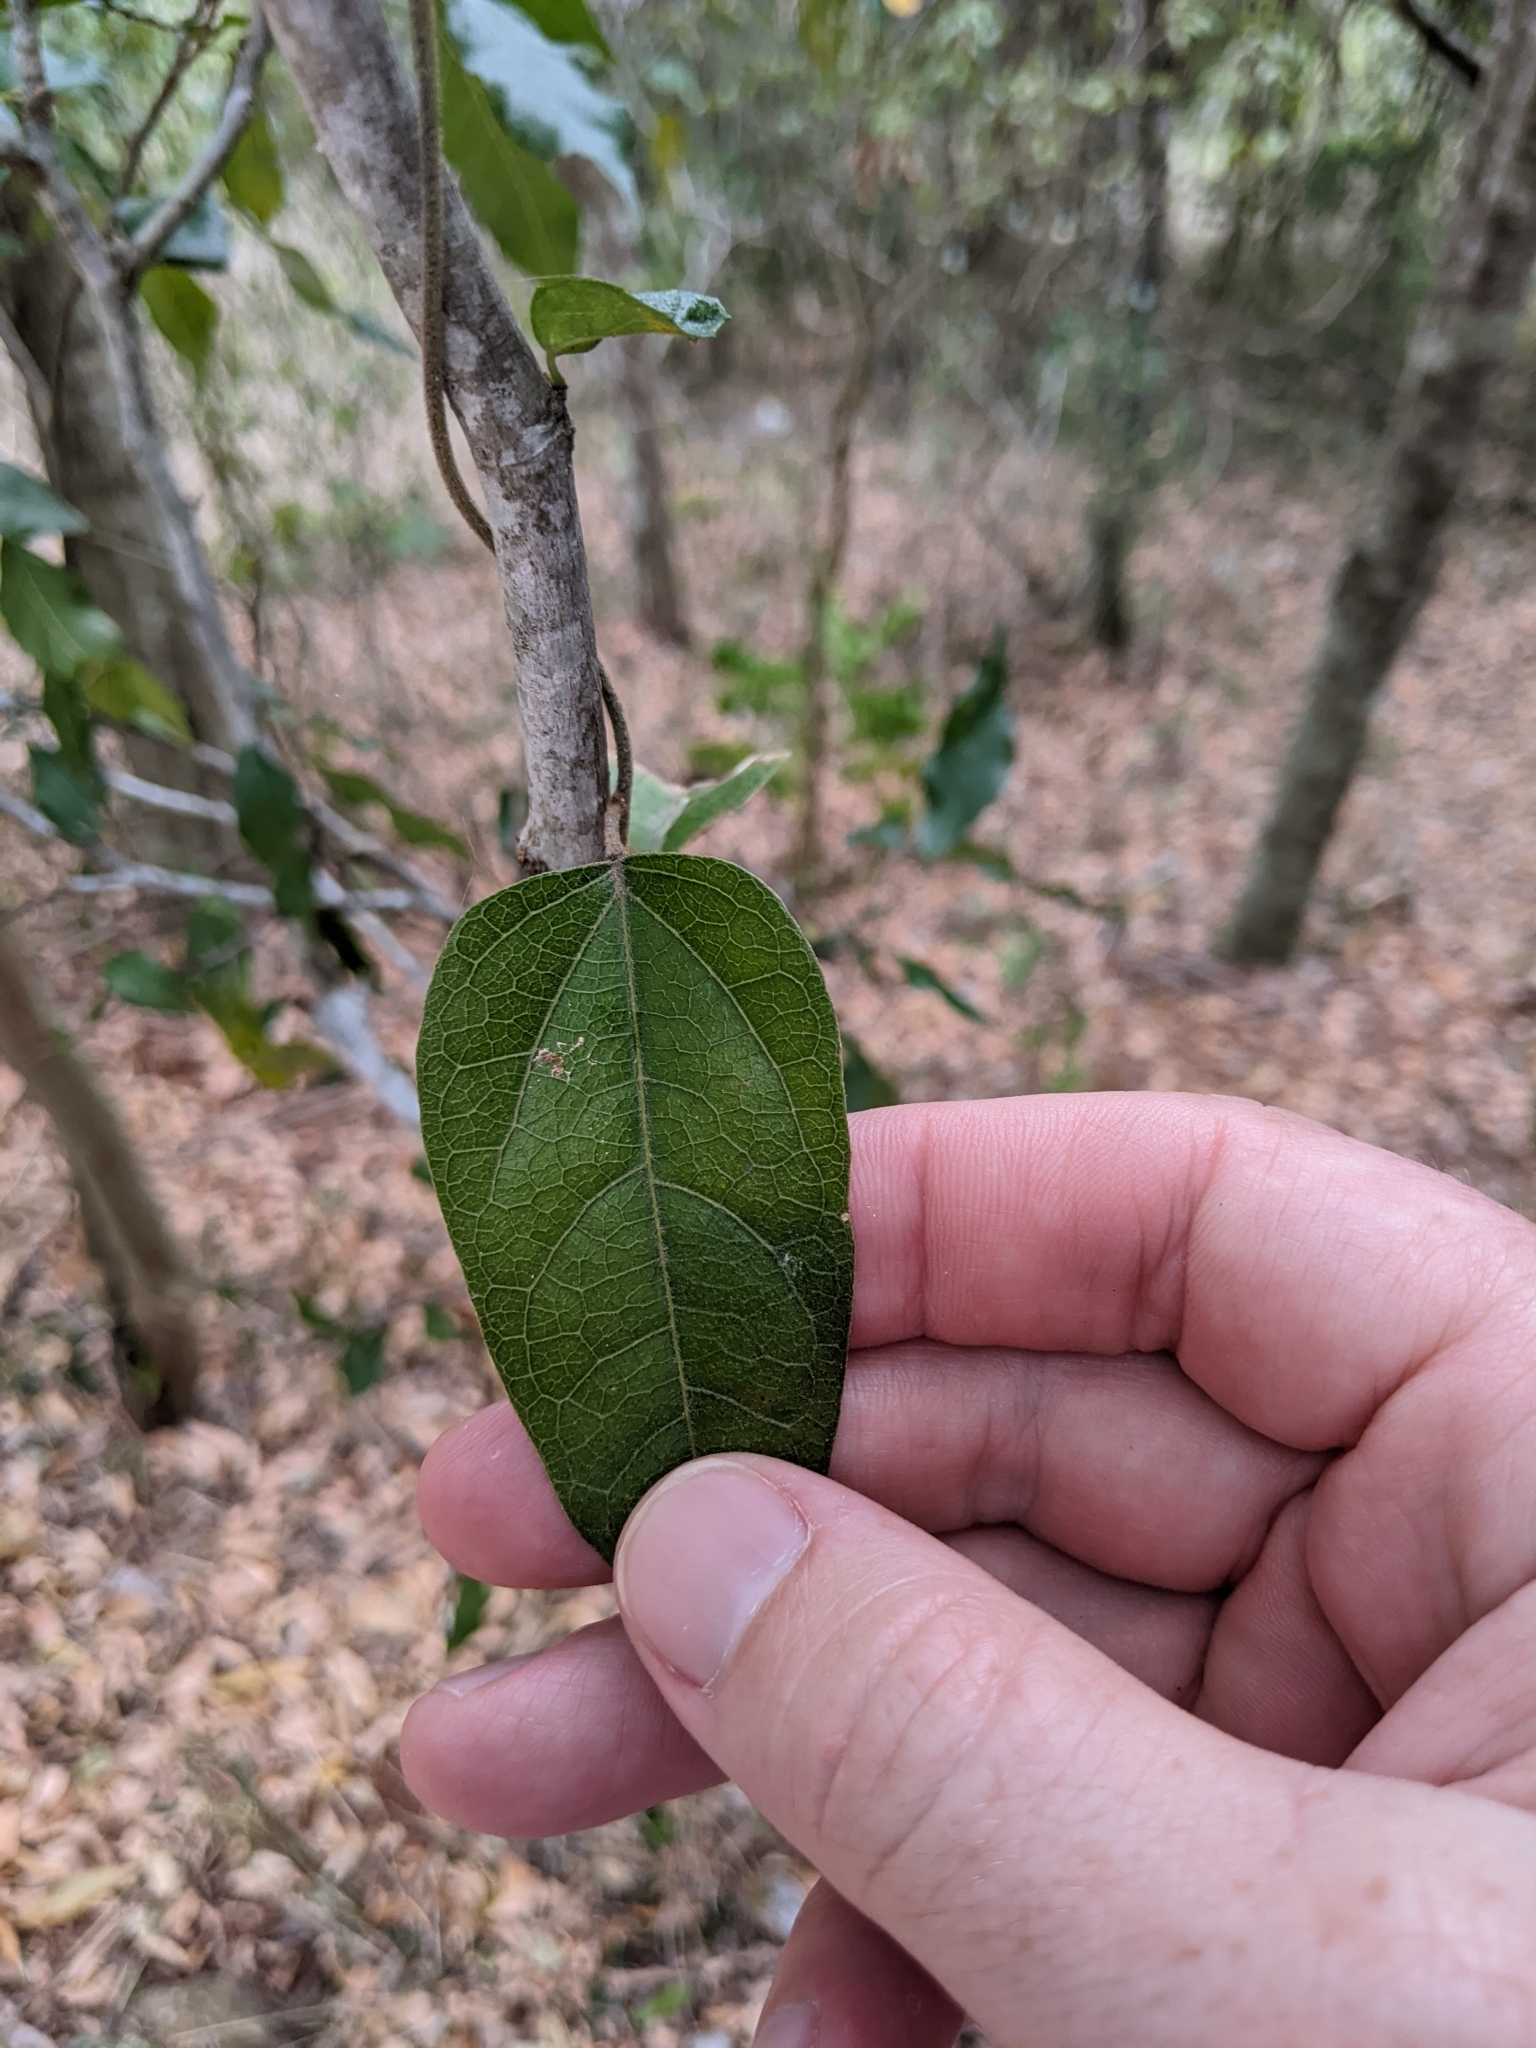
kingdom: Plantae
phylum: Tracheophyta
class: Magnoliopsida
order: Ranunculales
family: Menispermaceae
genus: Pleogyne
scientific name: Pleogyne australis
